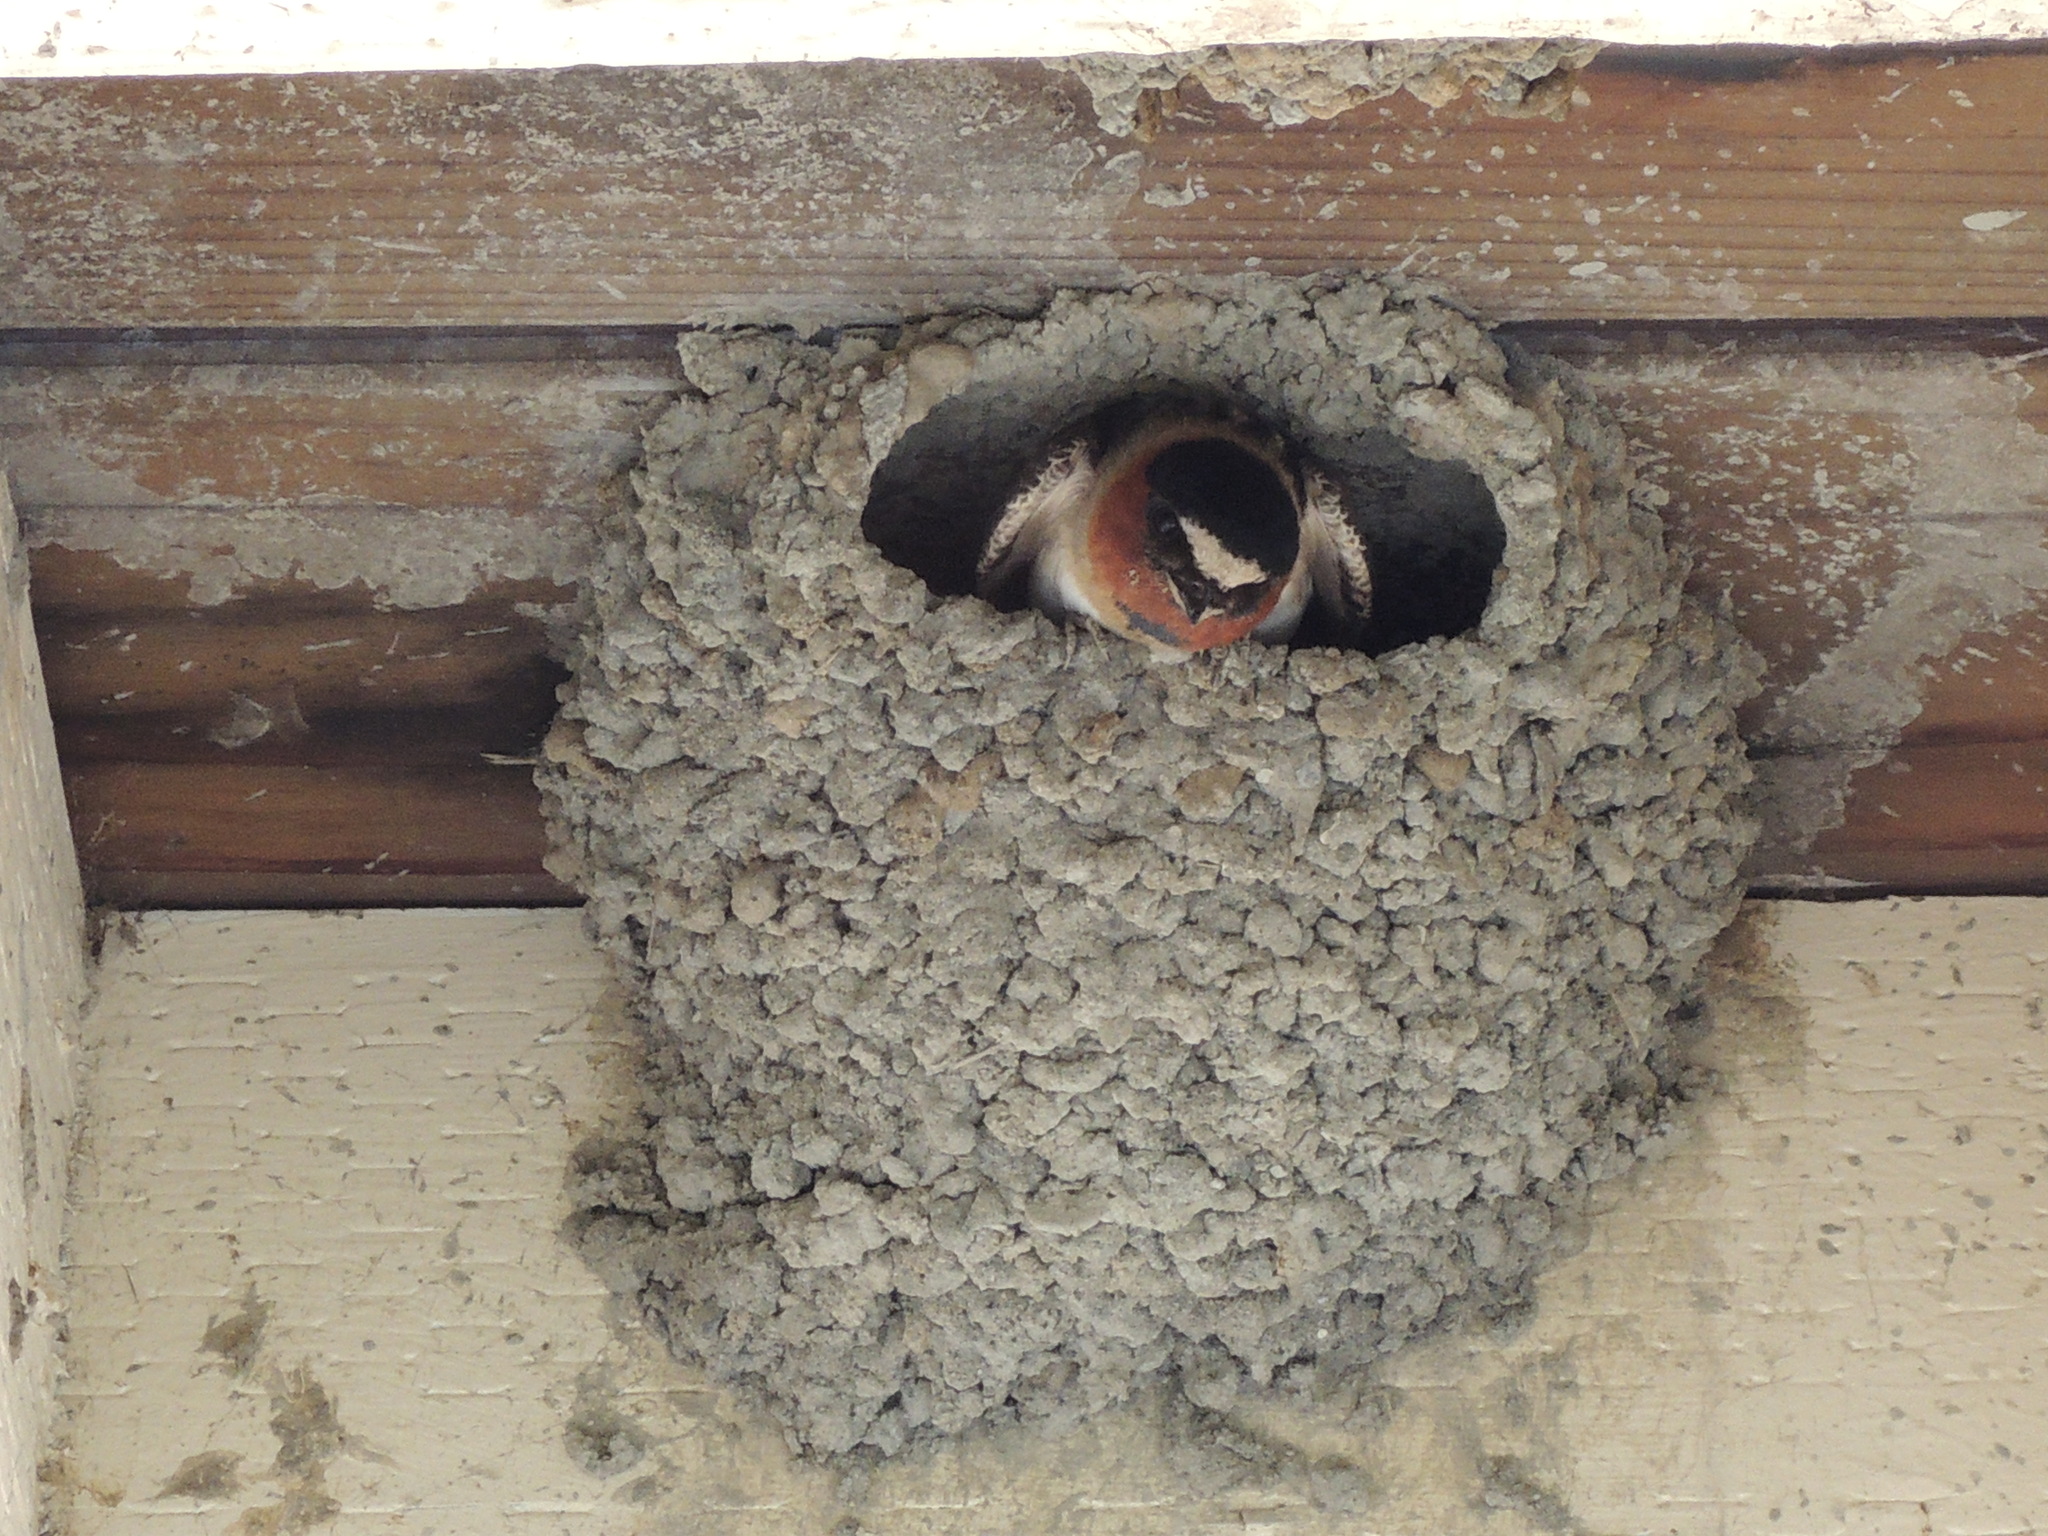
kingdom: Animalia
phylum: Chordata
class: Aves
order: Passeriformes
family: Hirundinidae
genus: Petrochelidon
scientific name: Petrochelidon pyrrhonota
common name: American cliff swallow
